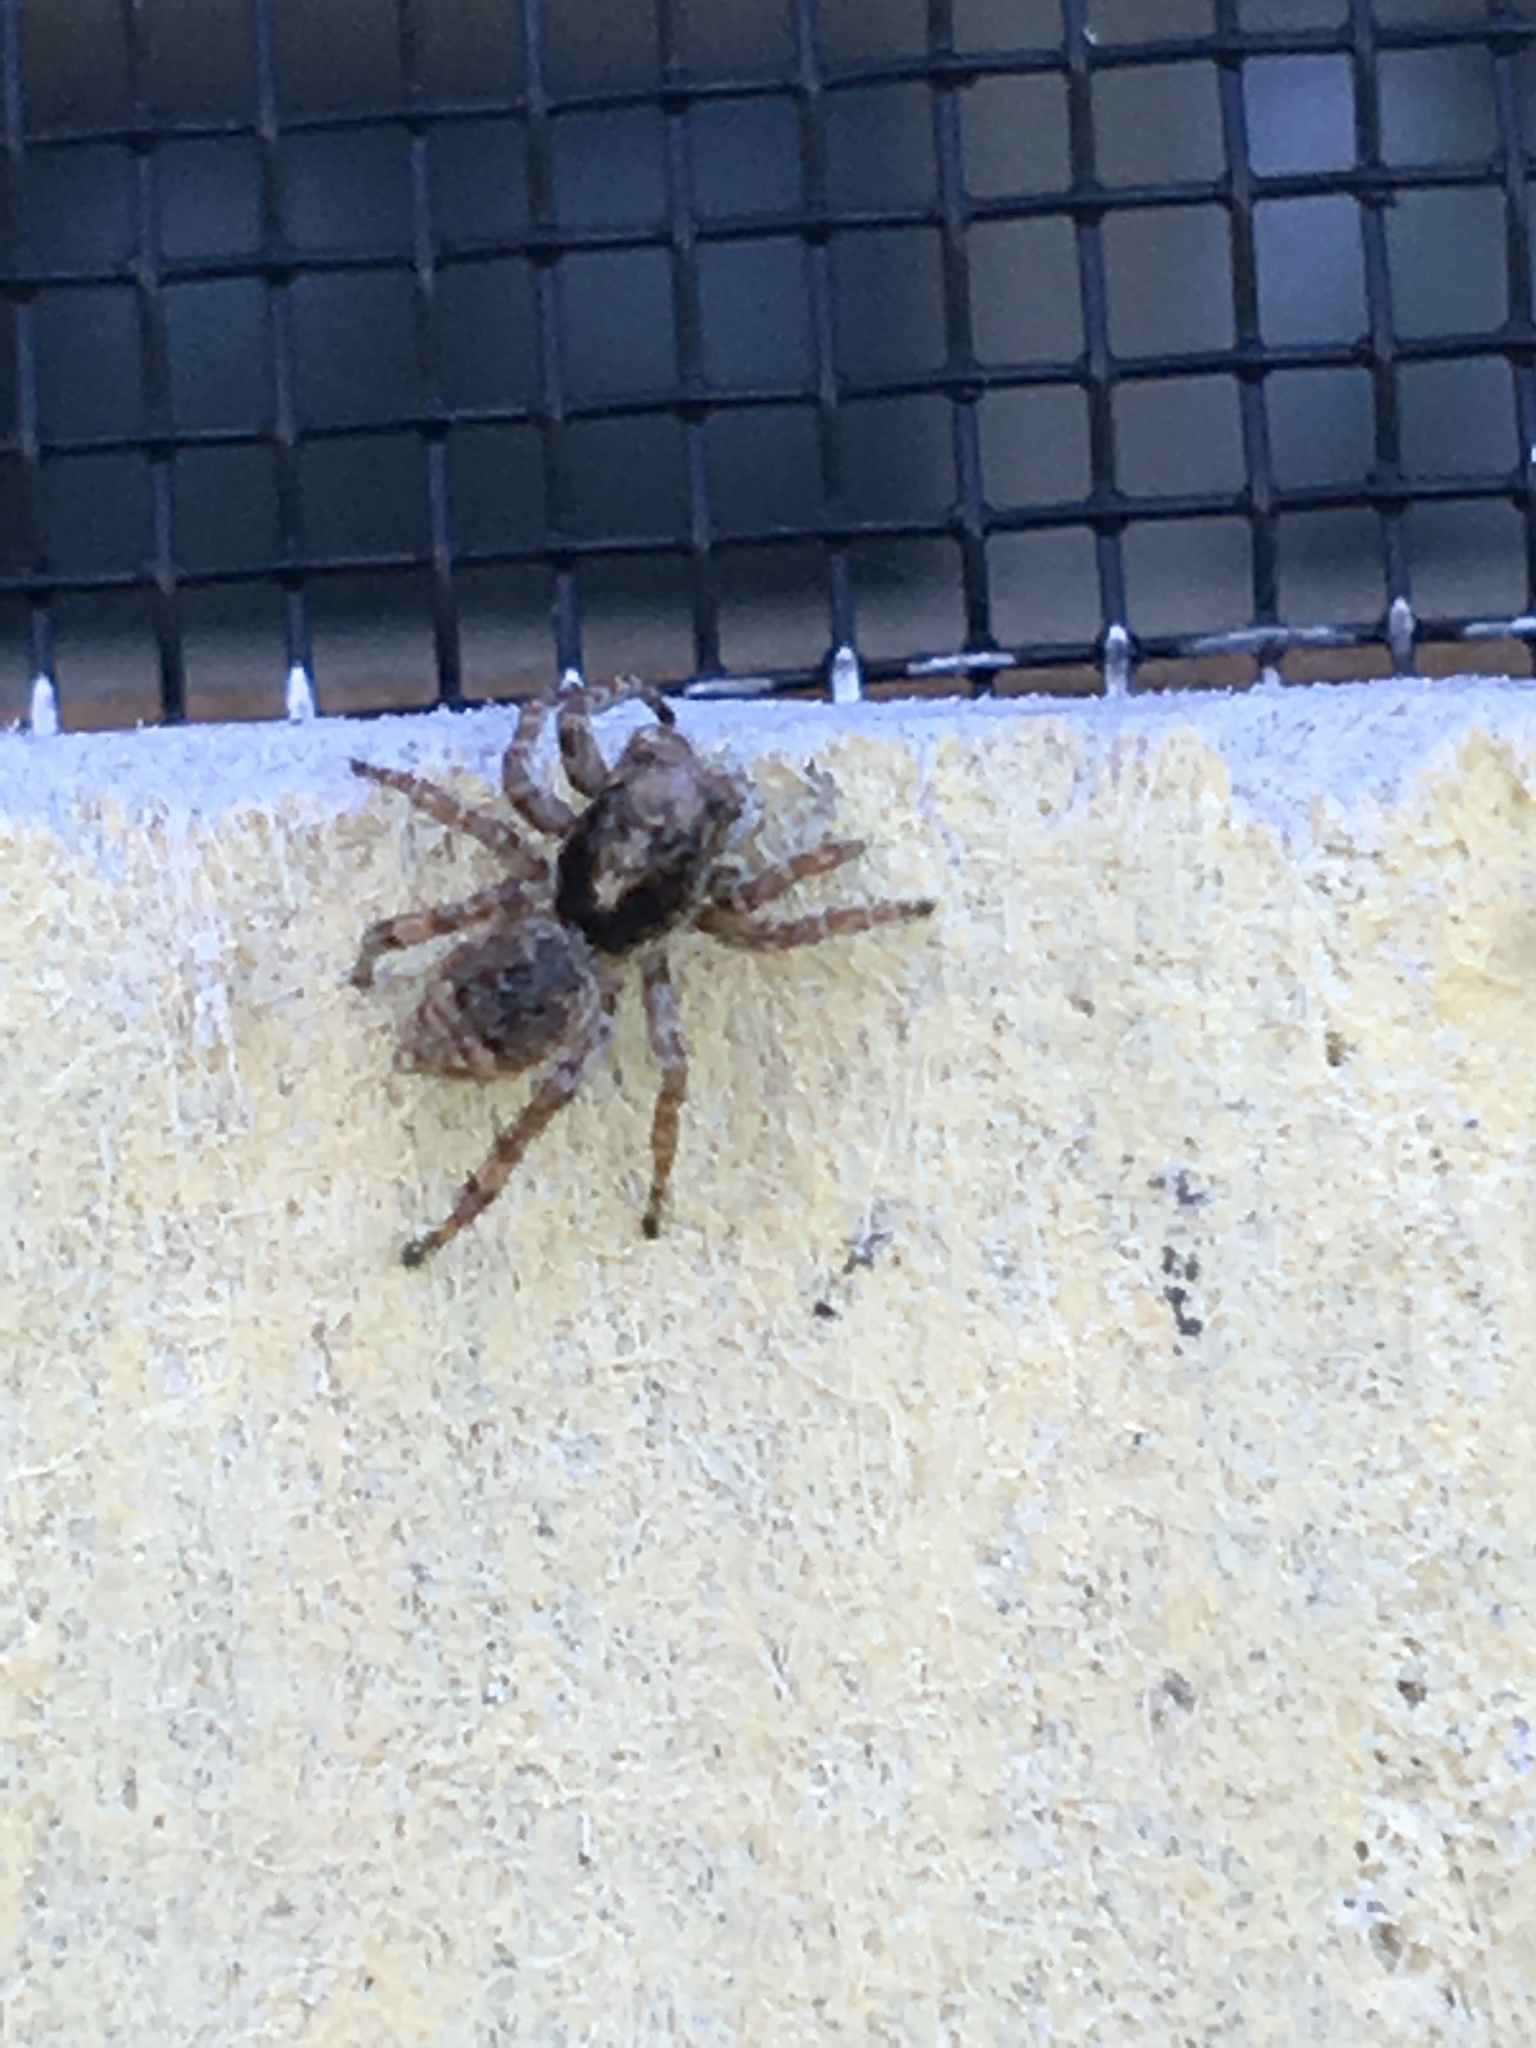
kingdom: Animalia
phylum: Arthropoda
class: Arachnida
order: Araneae
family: Salticidae
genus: Attulus
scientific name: Attulus fasciger
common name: Asiatic wall jumping spider
